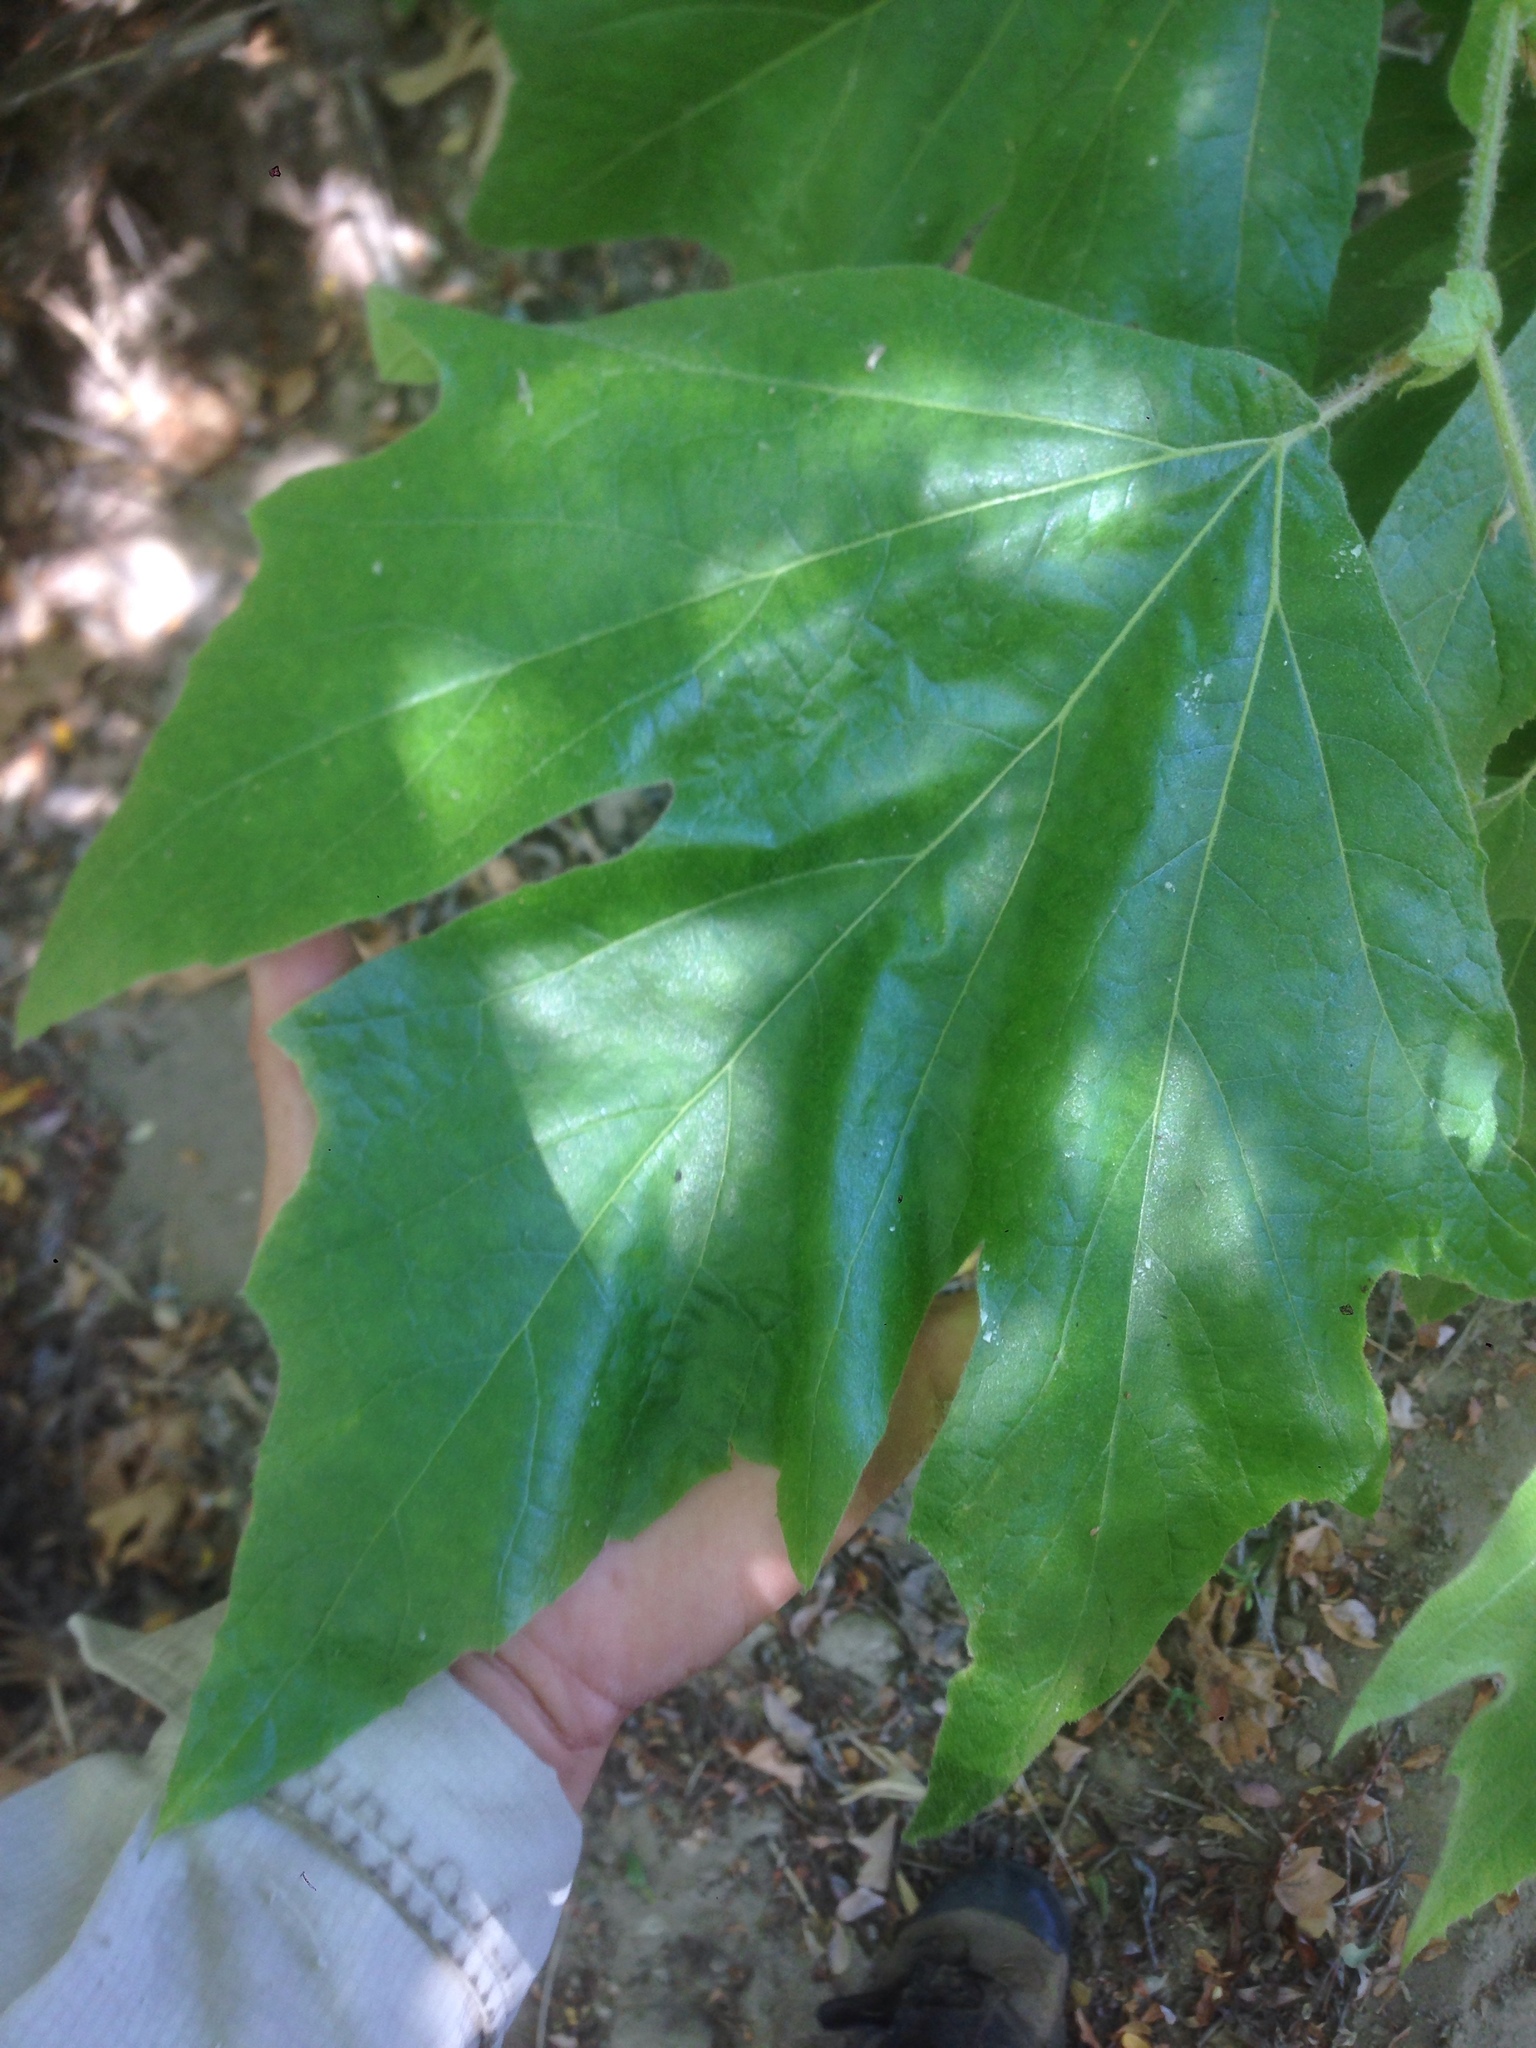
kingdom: Plantae
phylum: Tracheophyta
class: Magnoliopsida
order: Proteales
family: Platanaceae
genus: Platanus
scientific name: Platanus racemosa
